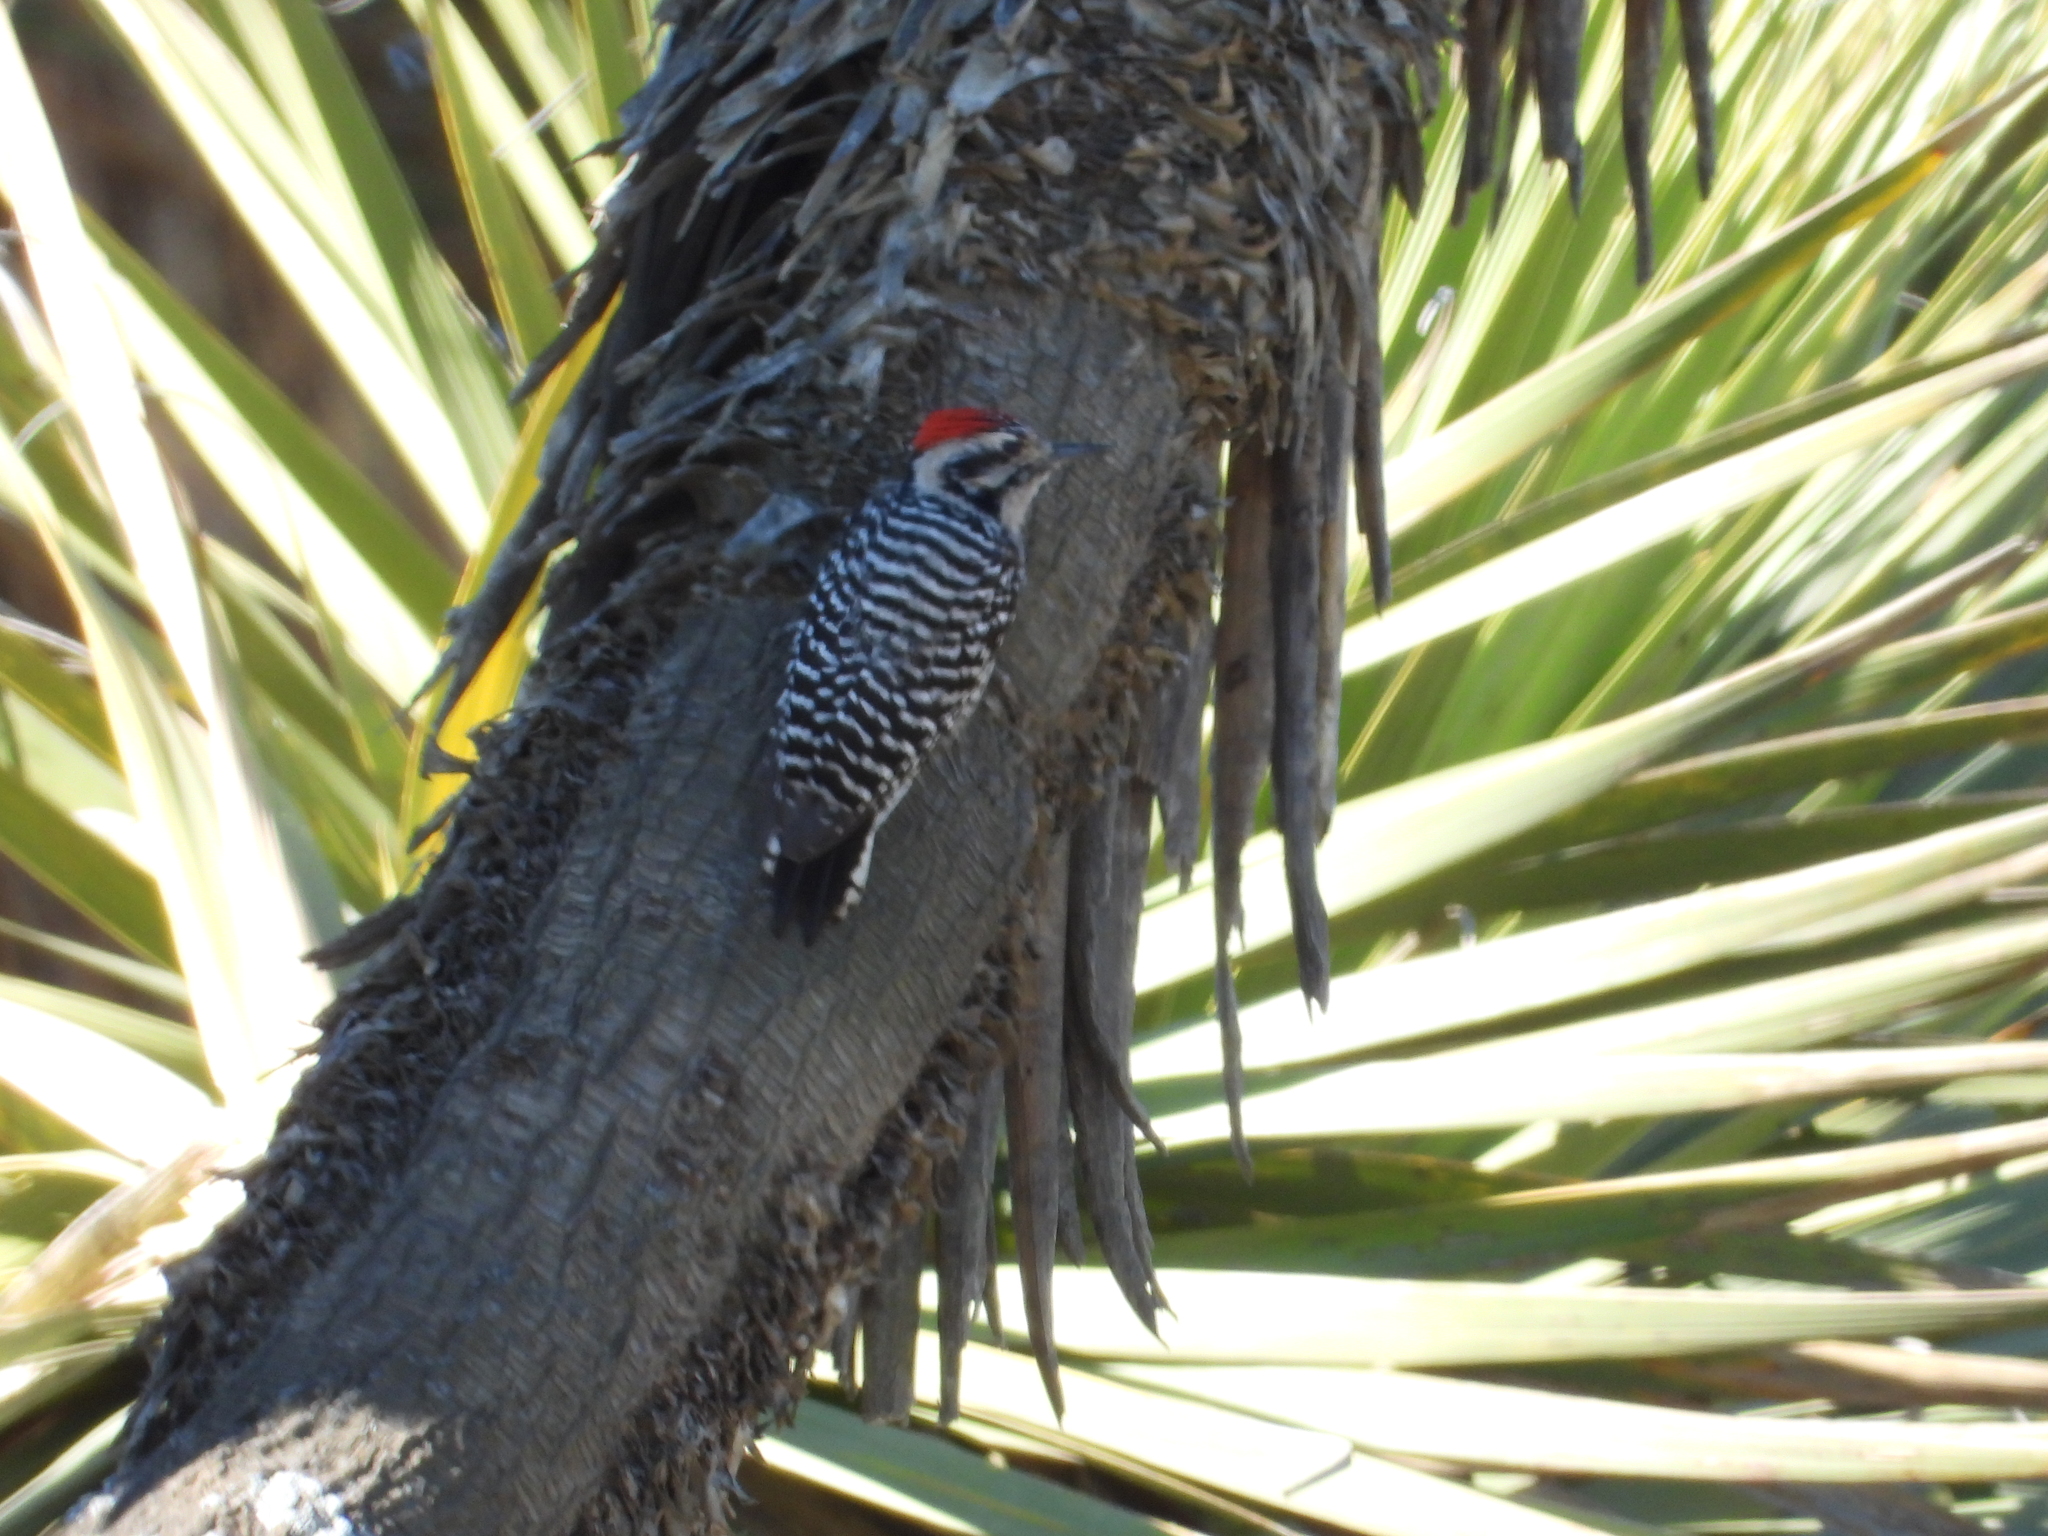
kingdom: Animalia
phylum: Chordata
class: Aves
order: Piciformes
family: Picidae
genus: Dryobates
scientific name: Dryobates scalaris
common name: Ladder-backed woodpecker
